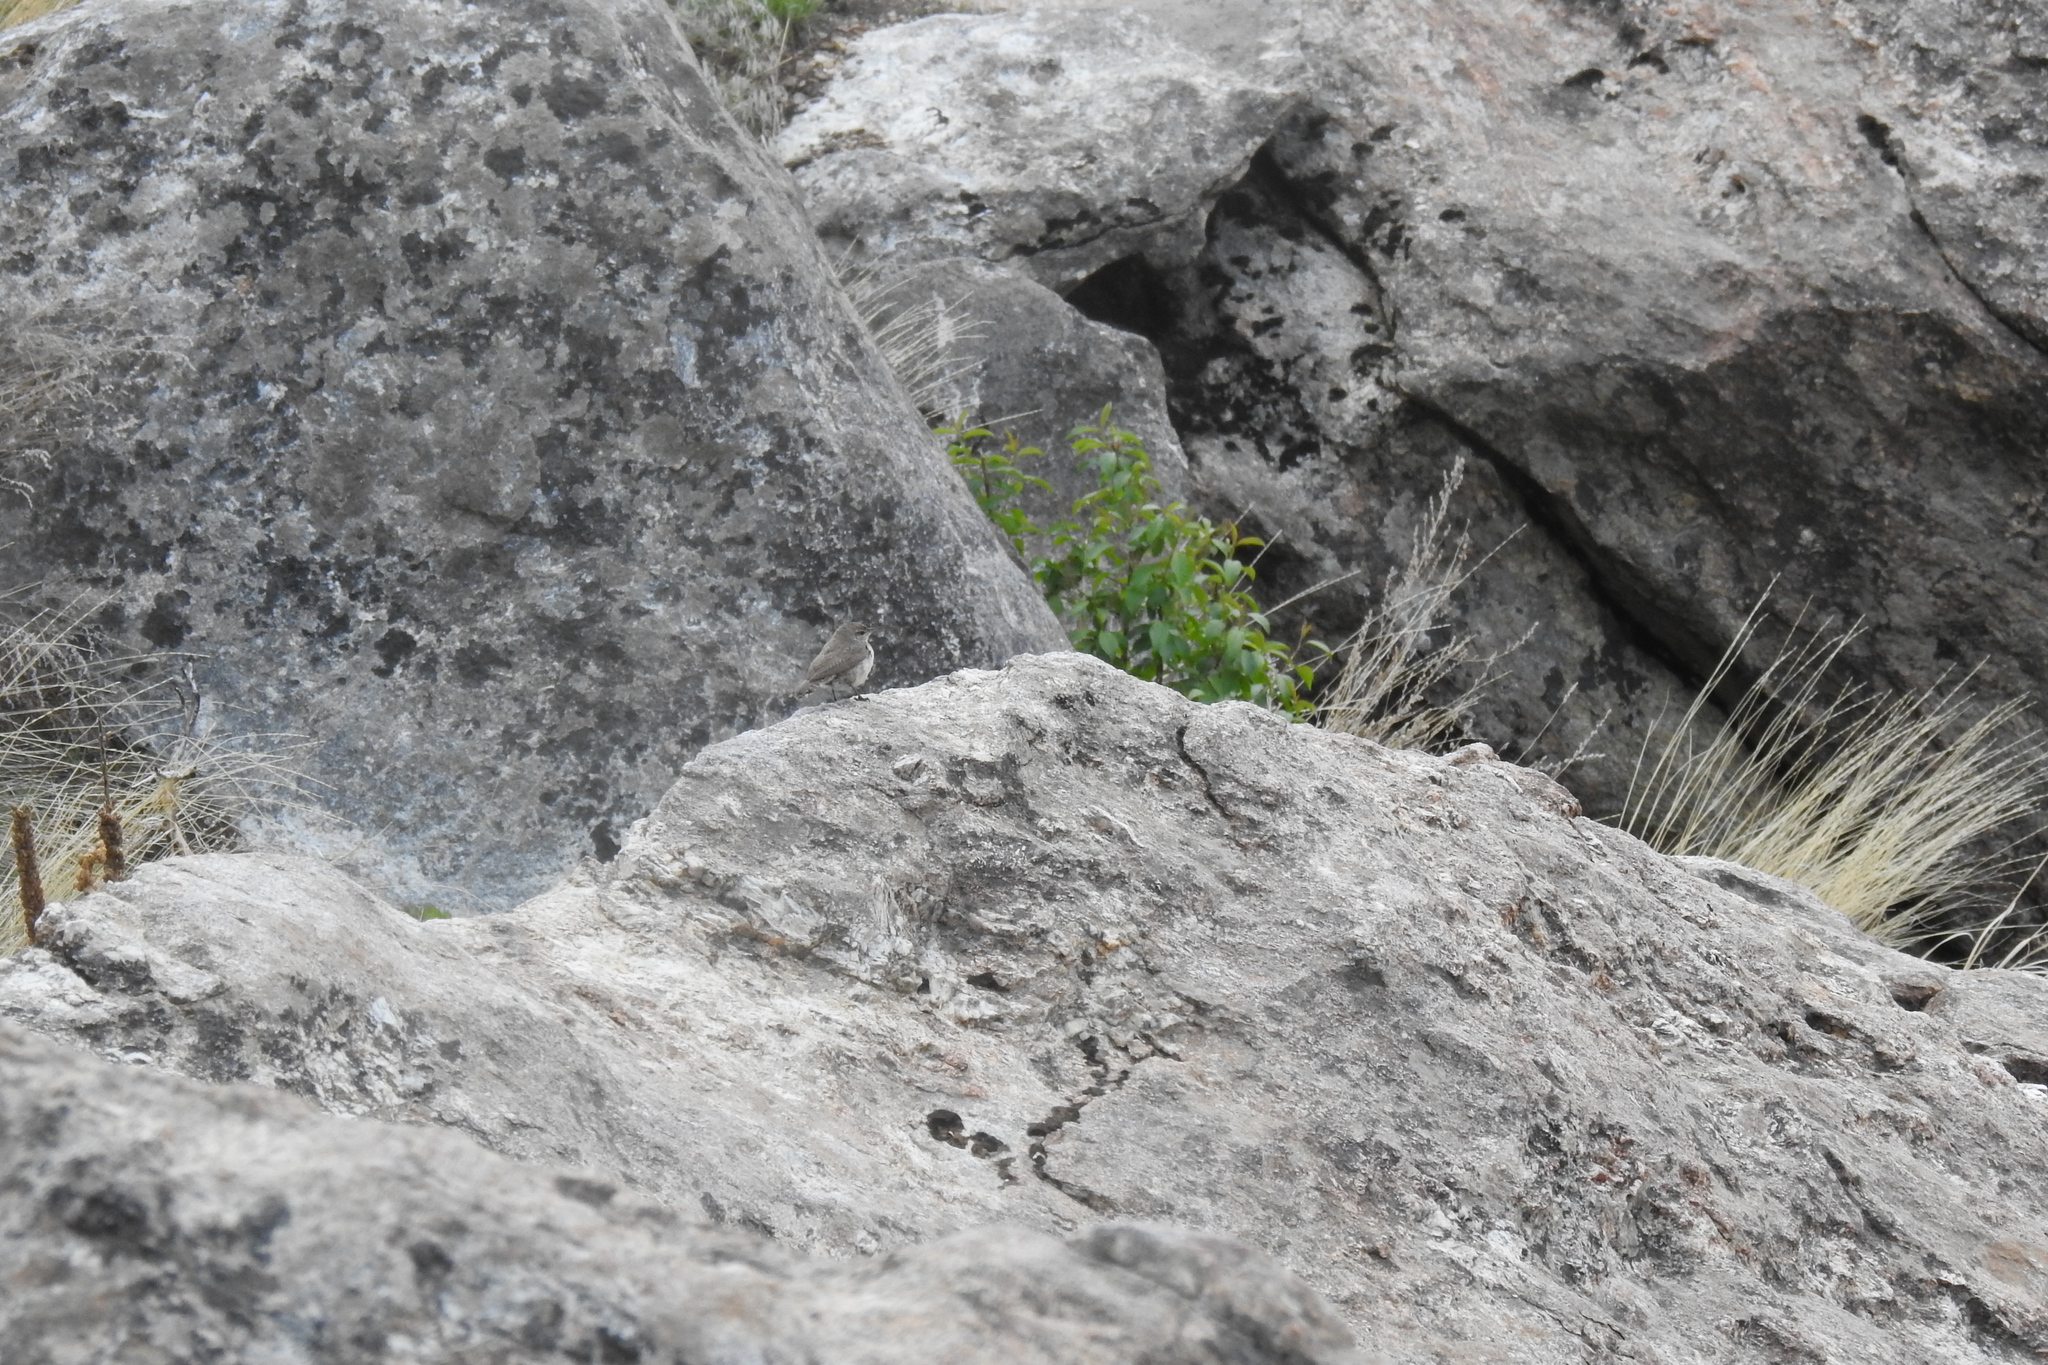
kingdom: Animalia
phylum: Chordata
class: Aves
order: Passeriformes
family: Troglodytidae
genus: Salpinctes
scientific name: Salpinctes obsoletus
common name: Rock wren
